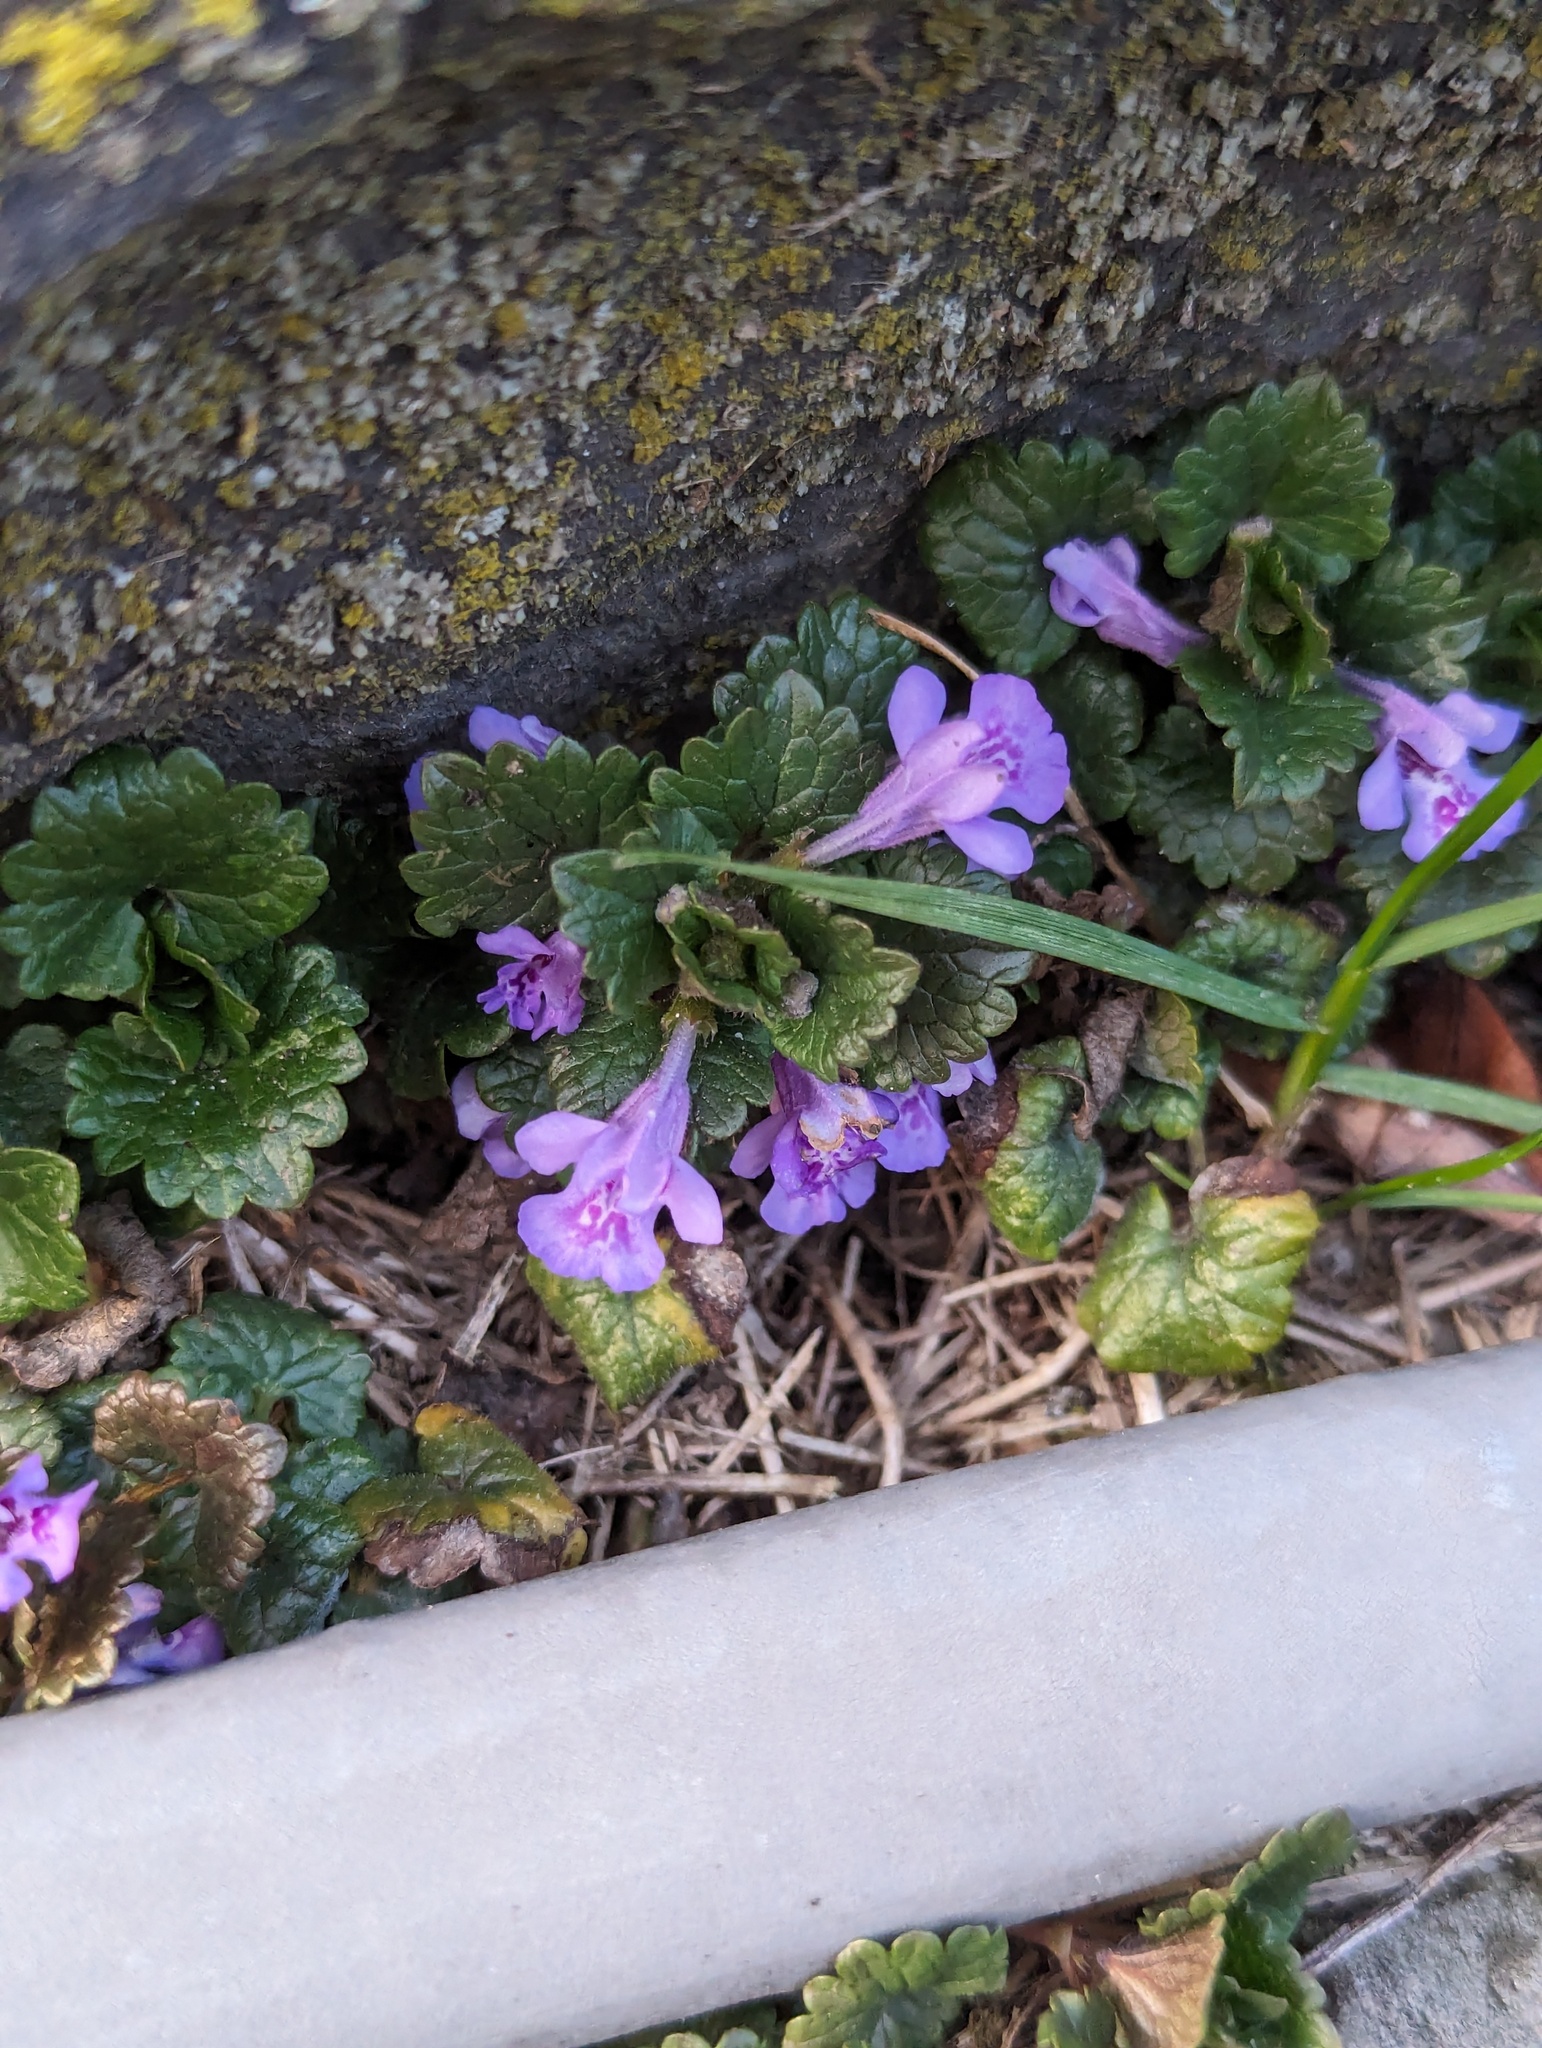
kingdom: Plantae
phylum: Tracheophyta
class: Magnoliopsida
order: Lamiales
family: Lamiaceae
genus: Glechoma
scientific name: Glechoma hederacea
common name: Ground ivy
